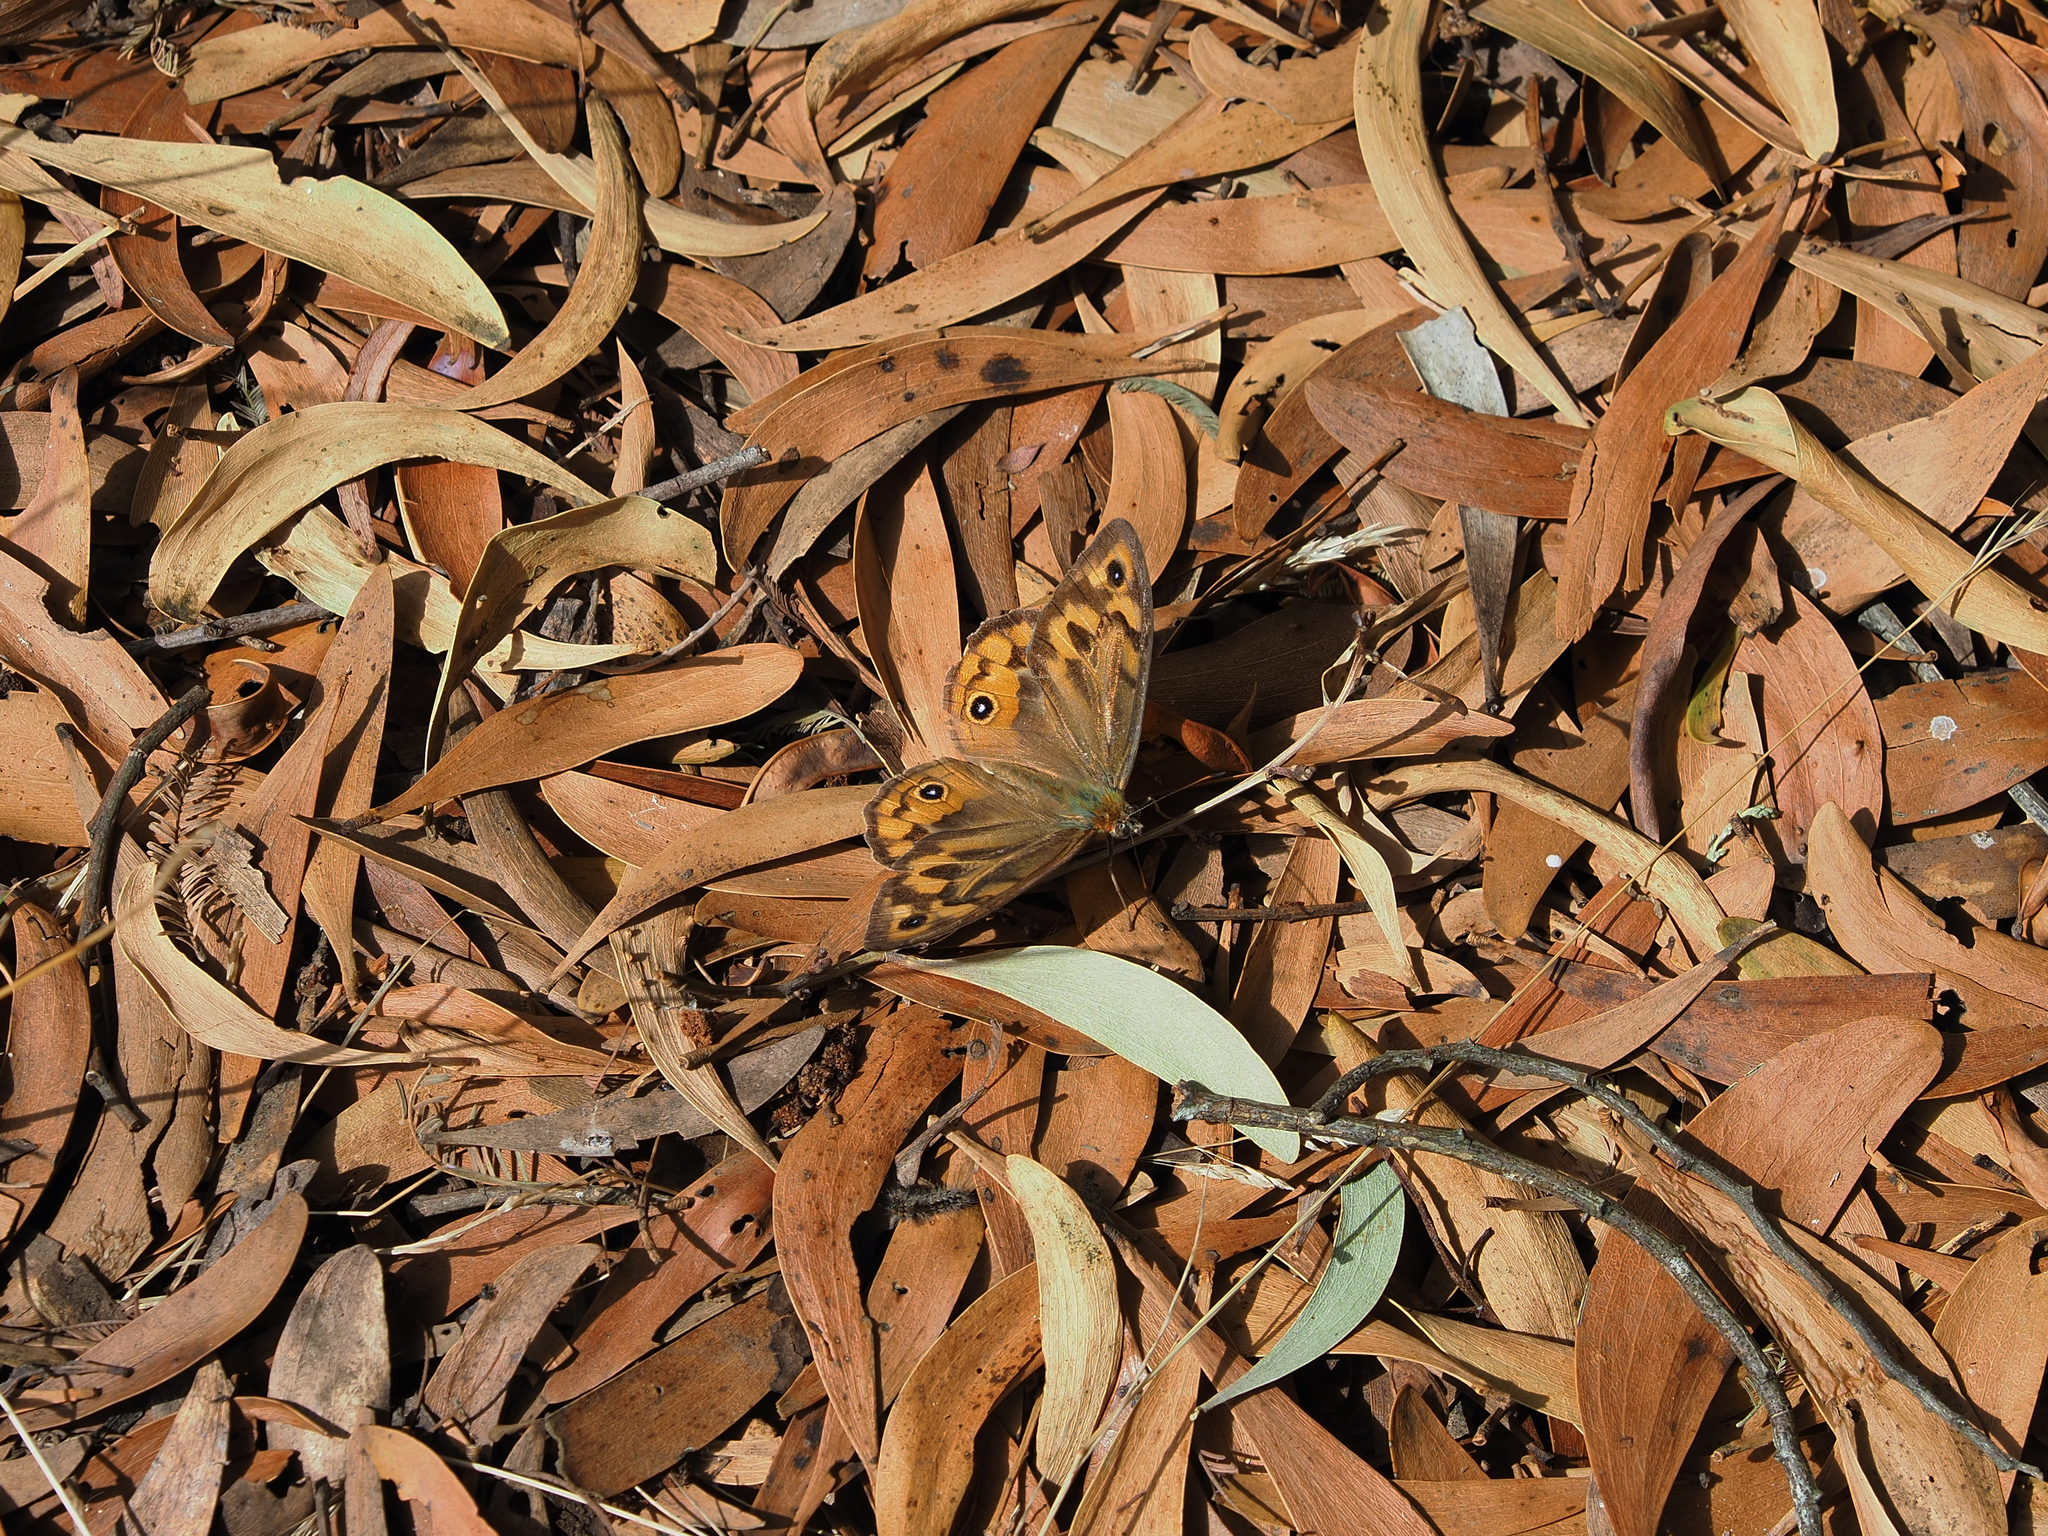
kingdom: Animalia
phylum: Arthropoda
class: Insecta
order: Lepidoptera
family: Nymphalidae
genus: Heteronympha
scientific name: Heteronympha merope
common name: Common brown
